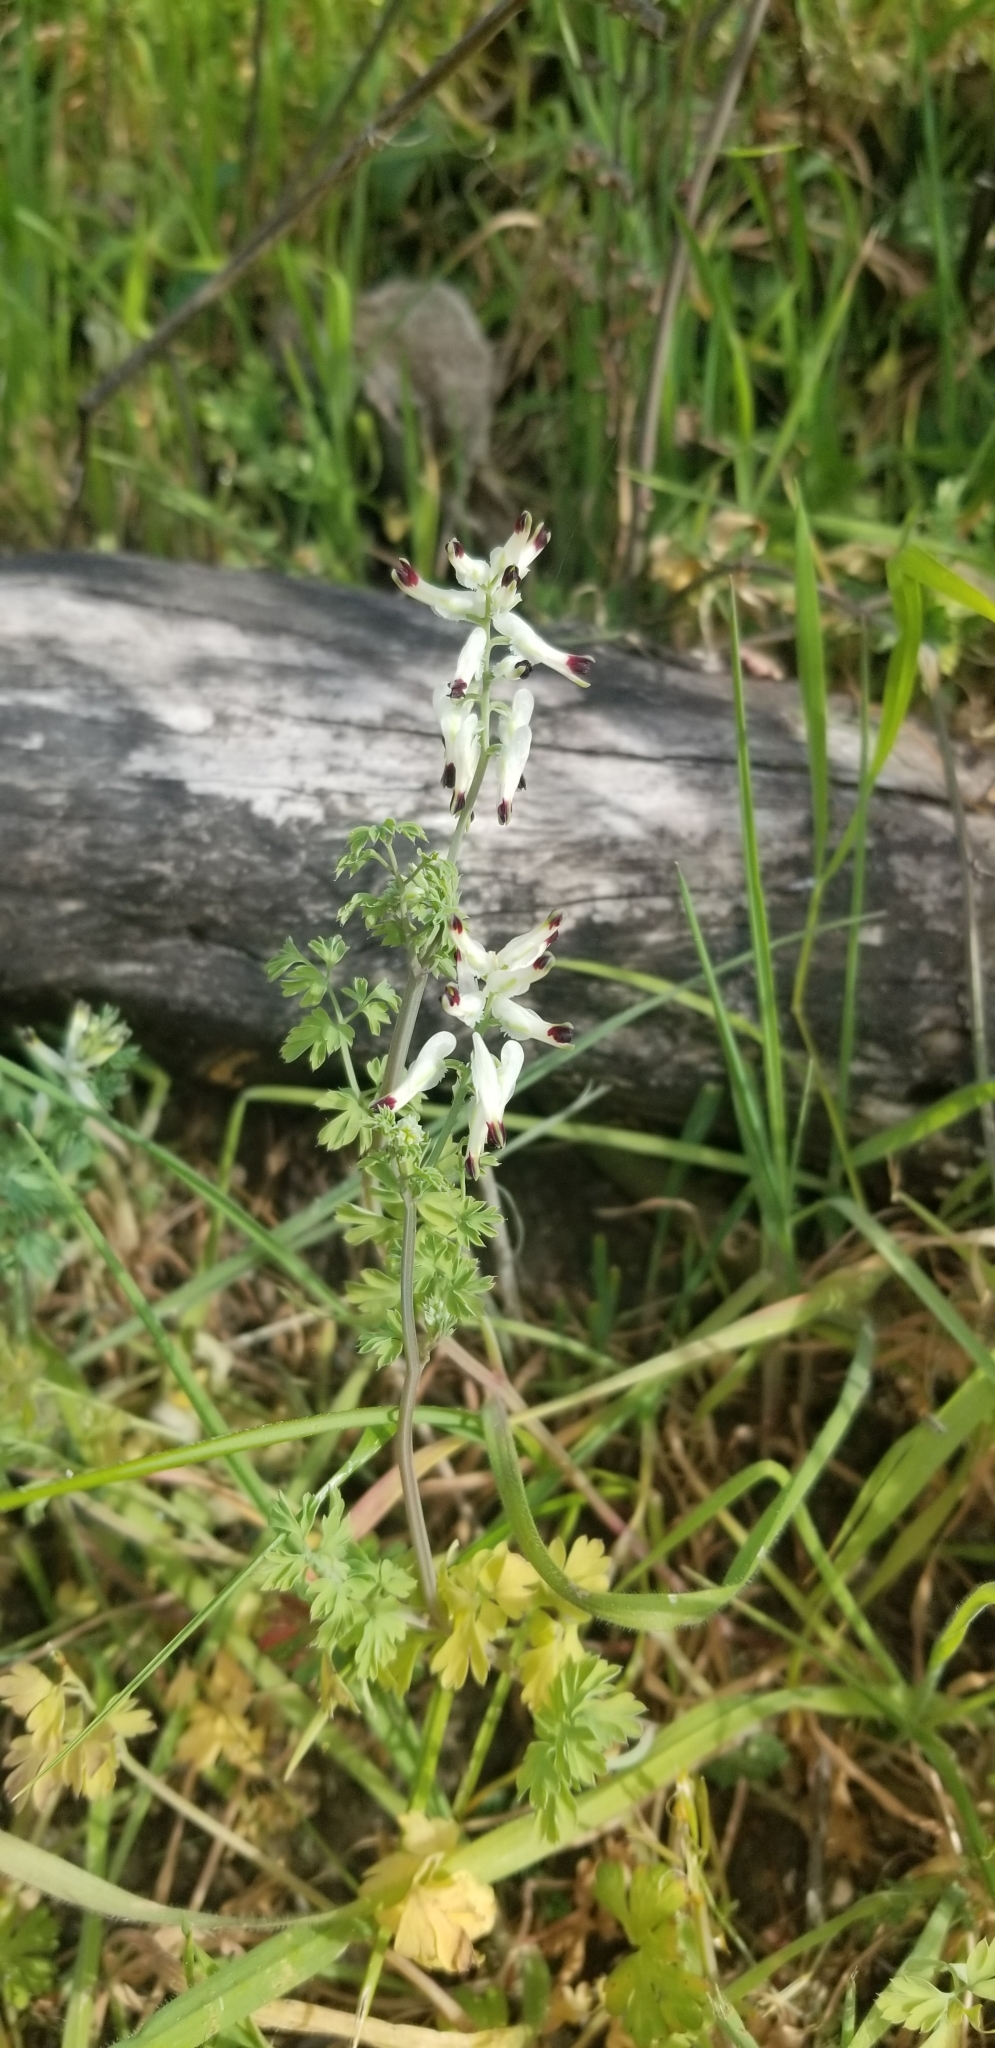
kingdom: Plantae
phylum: Tracheophyta
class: Magnoliopsida
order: Ranunculales
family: Papaveraceae
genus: Fumaria
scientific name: Fumaria capreolata
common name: White ramping-fumitory
